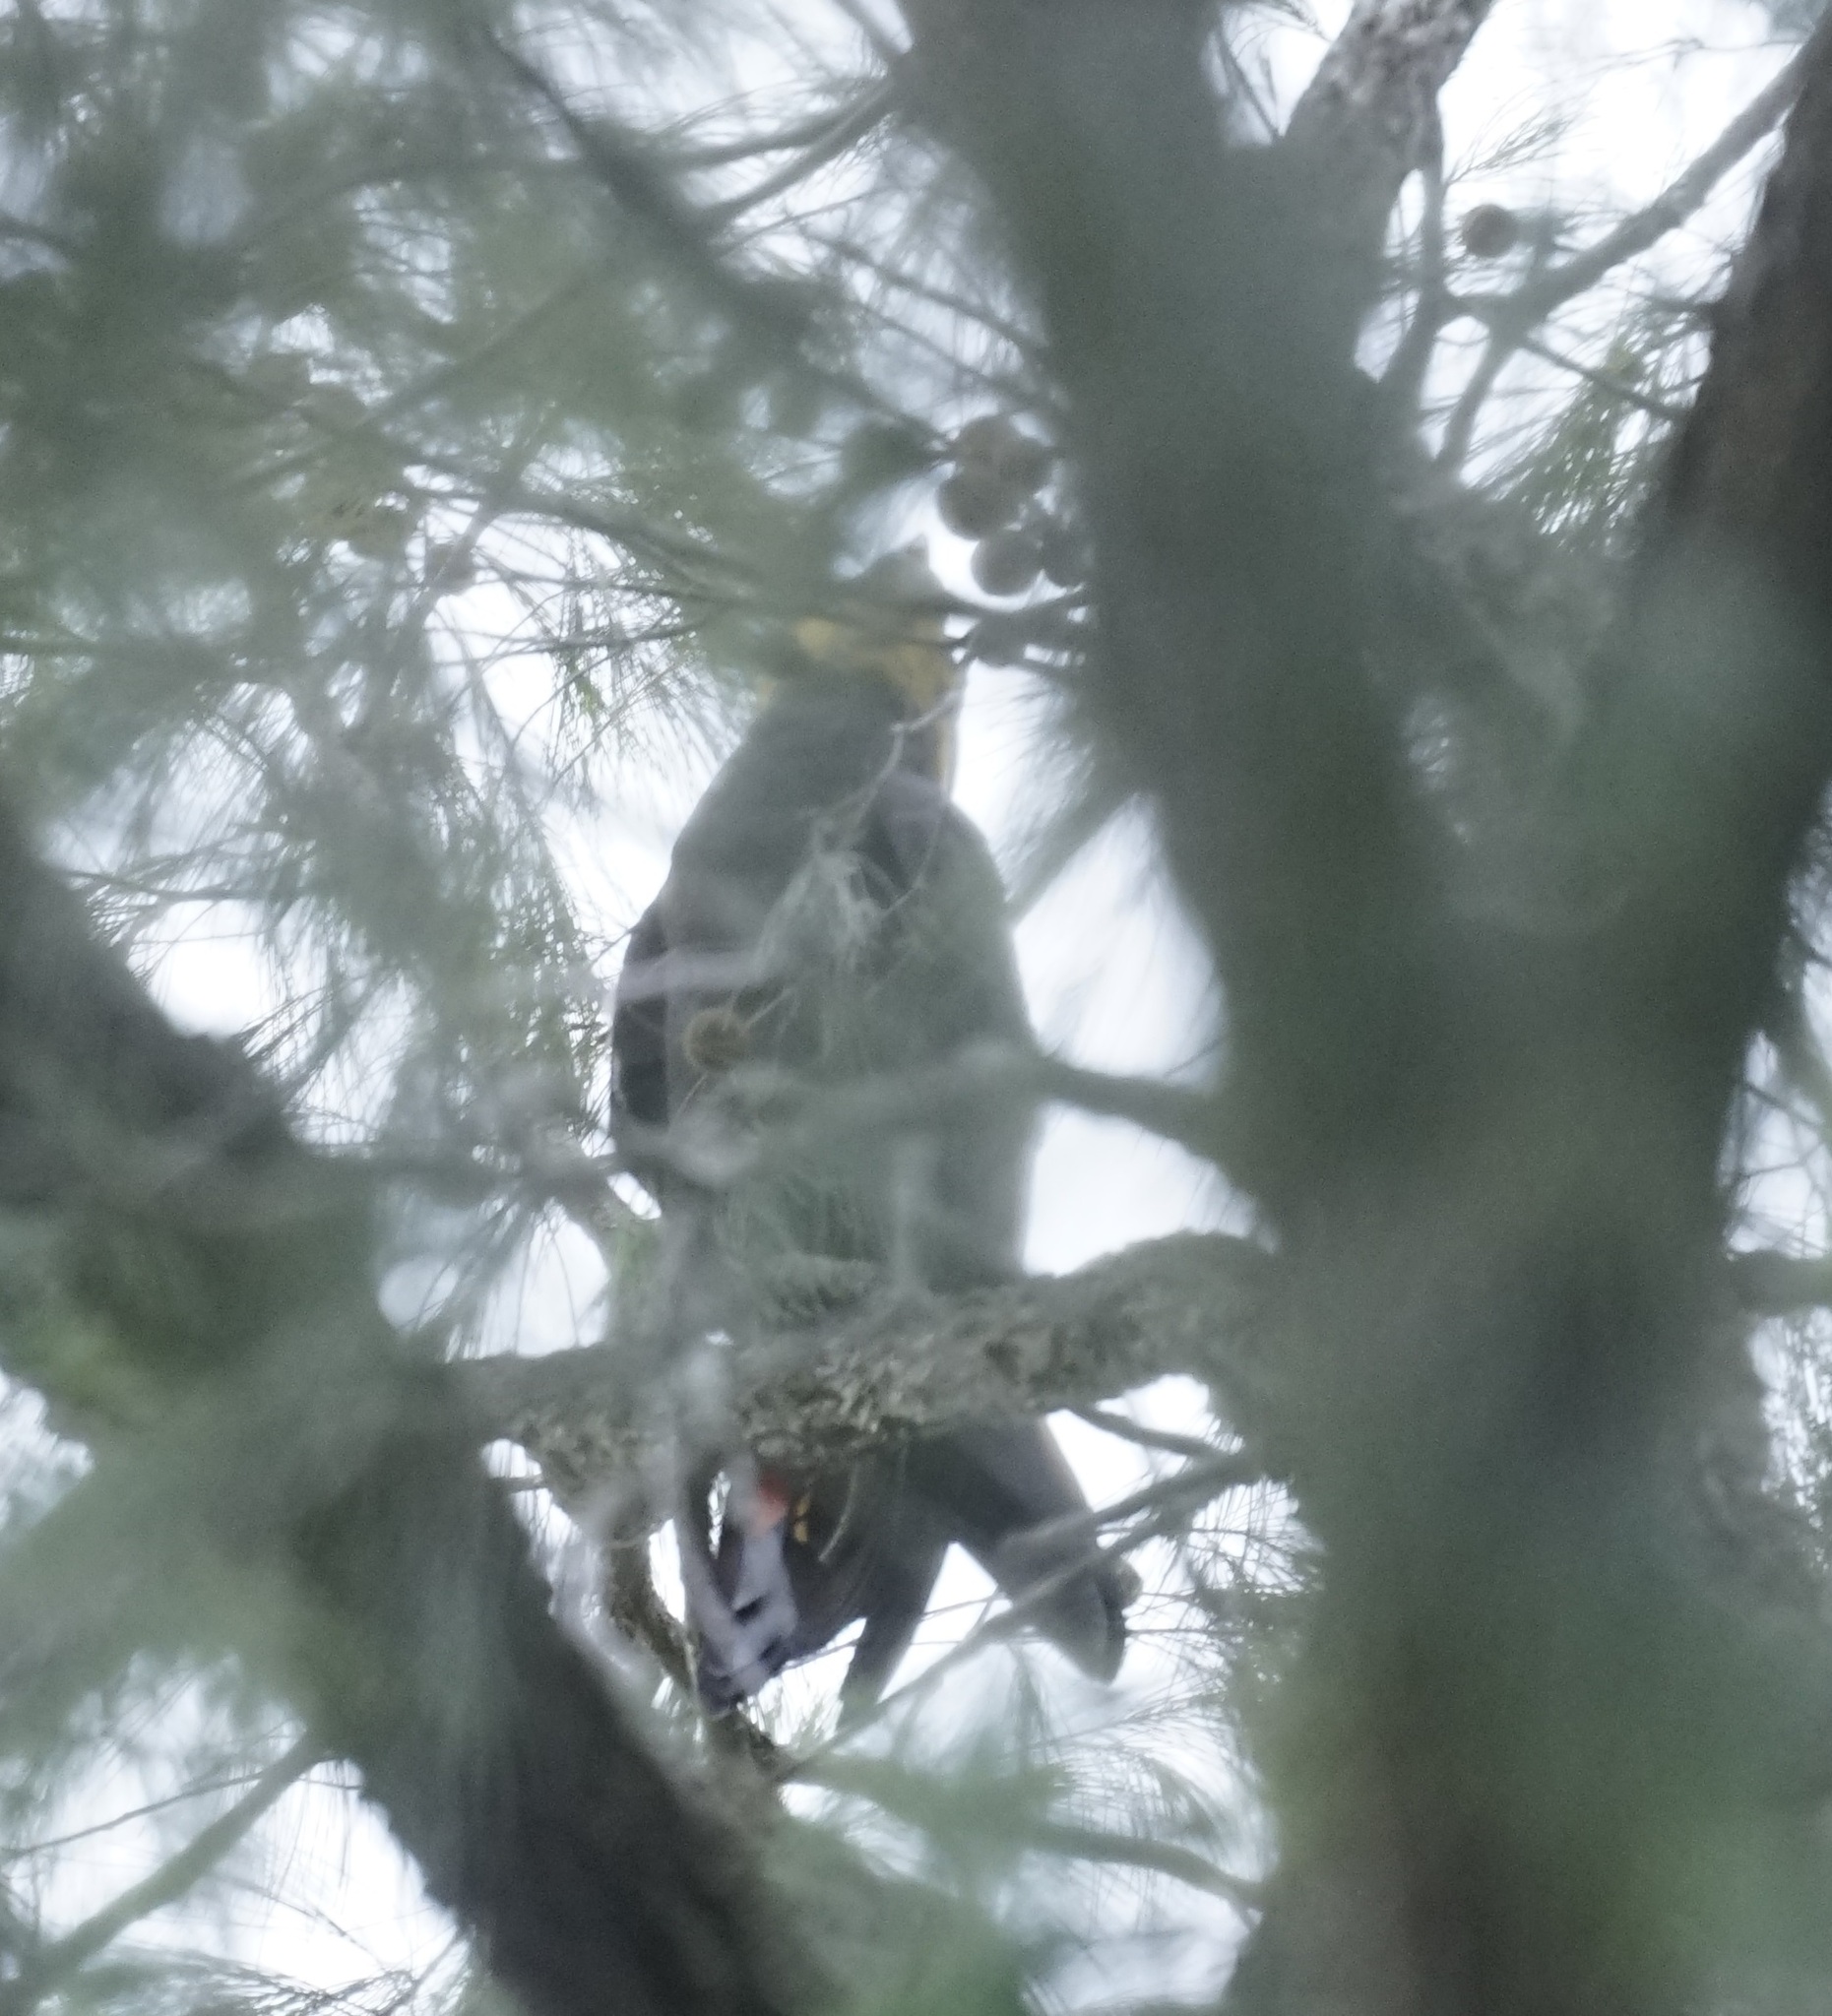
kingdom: Animalia
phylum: Chordata
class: Aves
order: Psittaciformes
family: Psittacidae
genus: Calyptorhynchus
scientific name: Calyptorhynchus lathami
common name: Glossy black cockatoo
